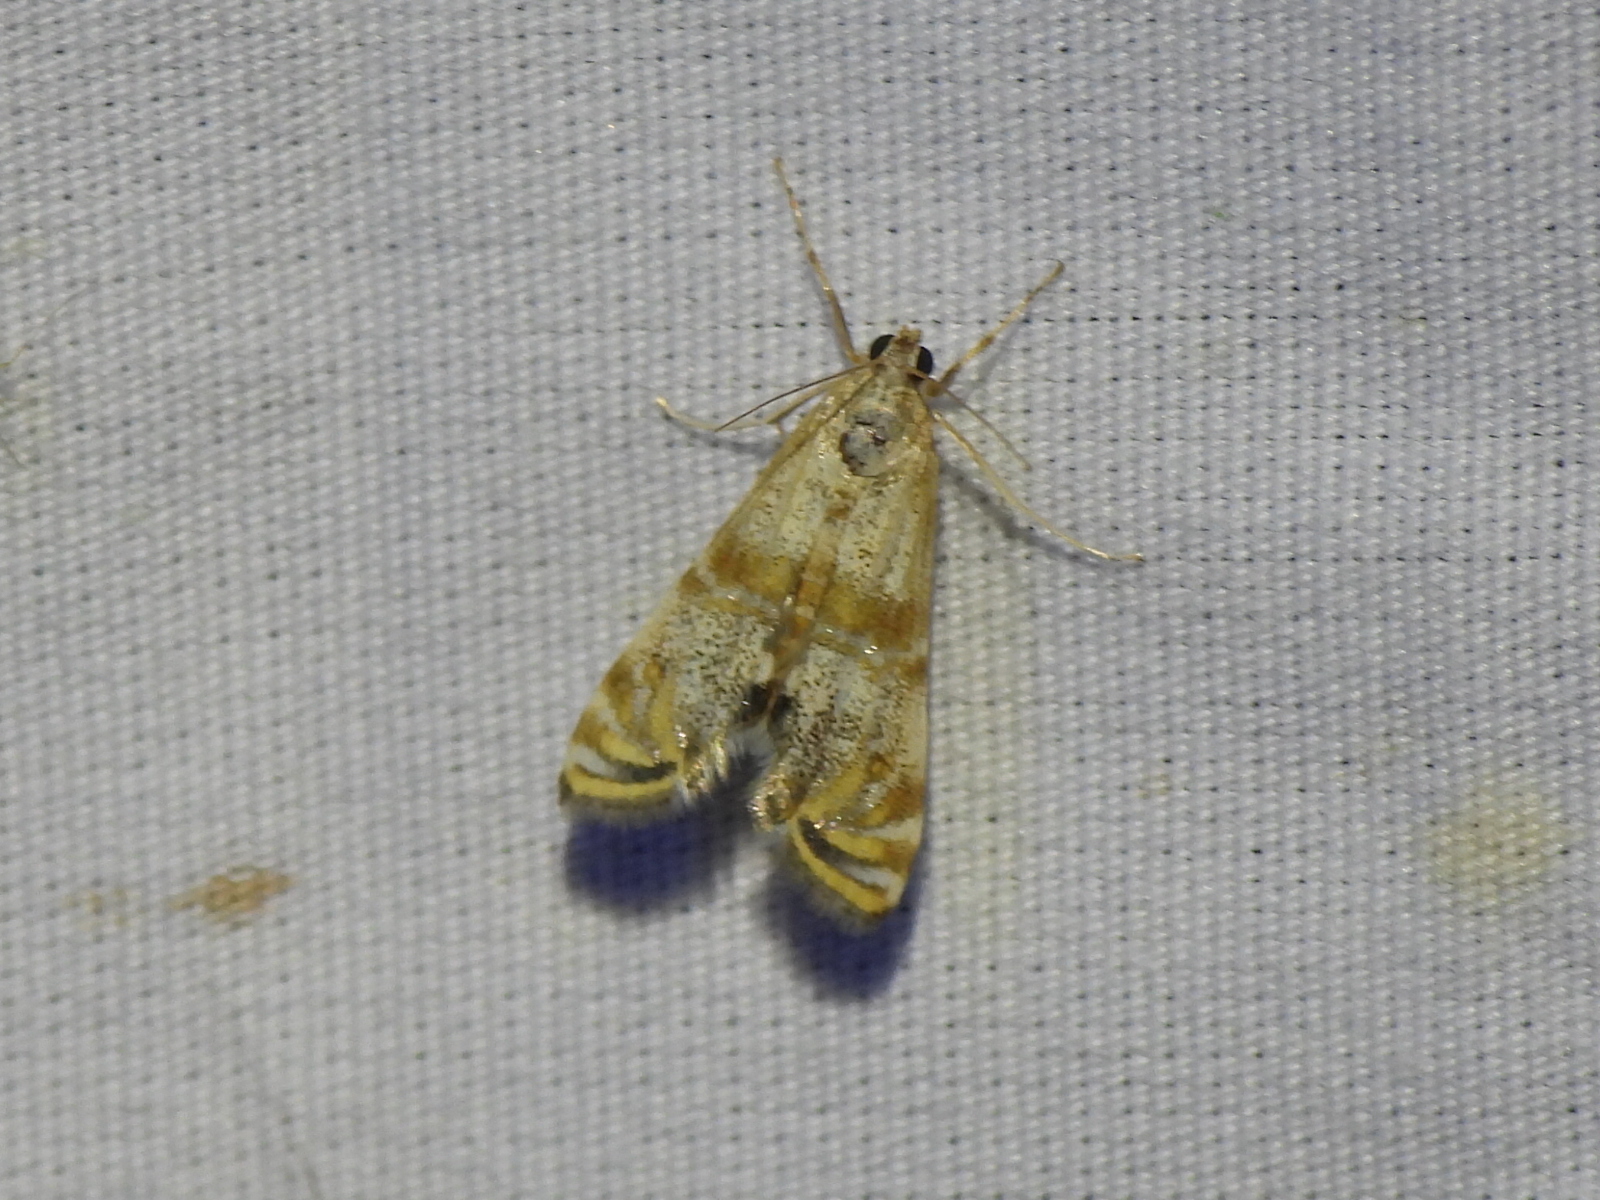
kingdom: Animalia
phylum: Arthropoda
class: Insecta
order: Lepidoptera
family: Crambidae
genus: Petrophila
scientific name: Petrophila bifascialis
